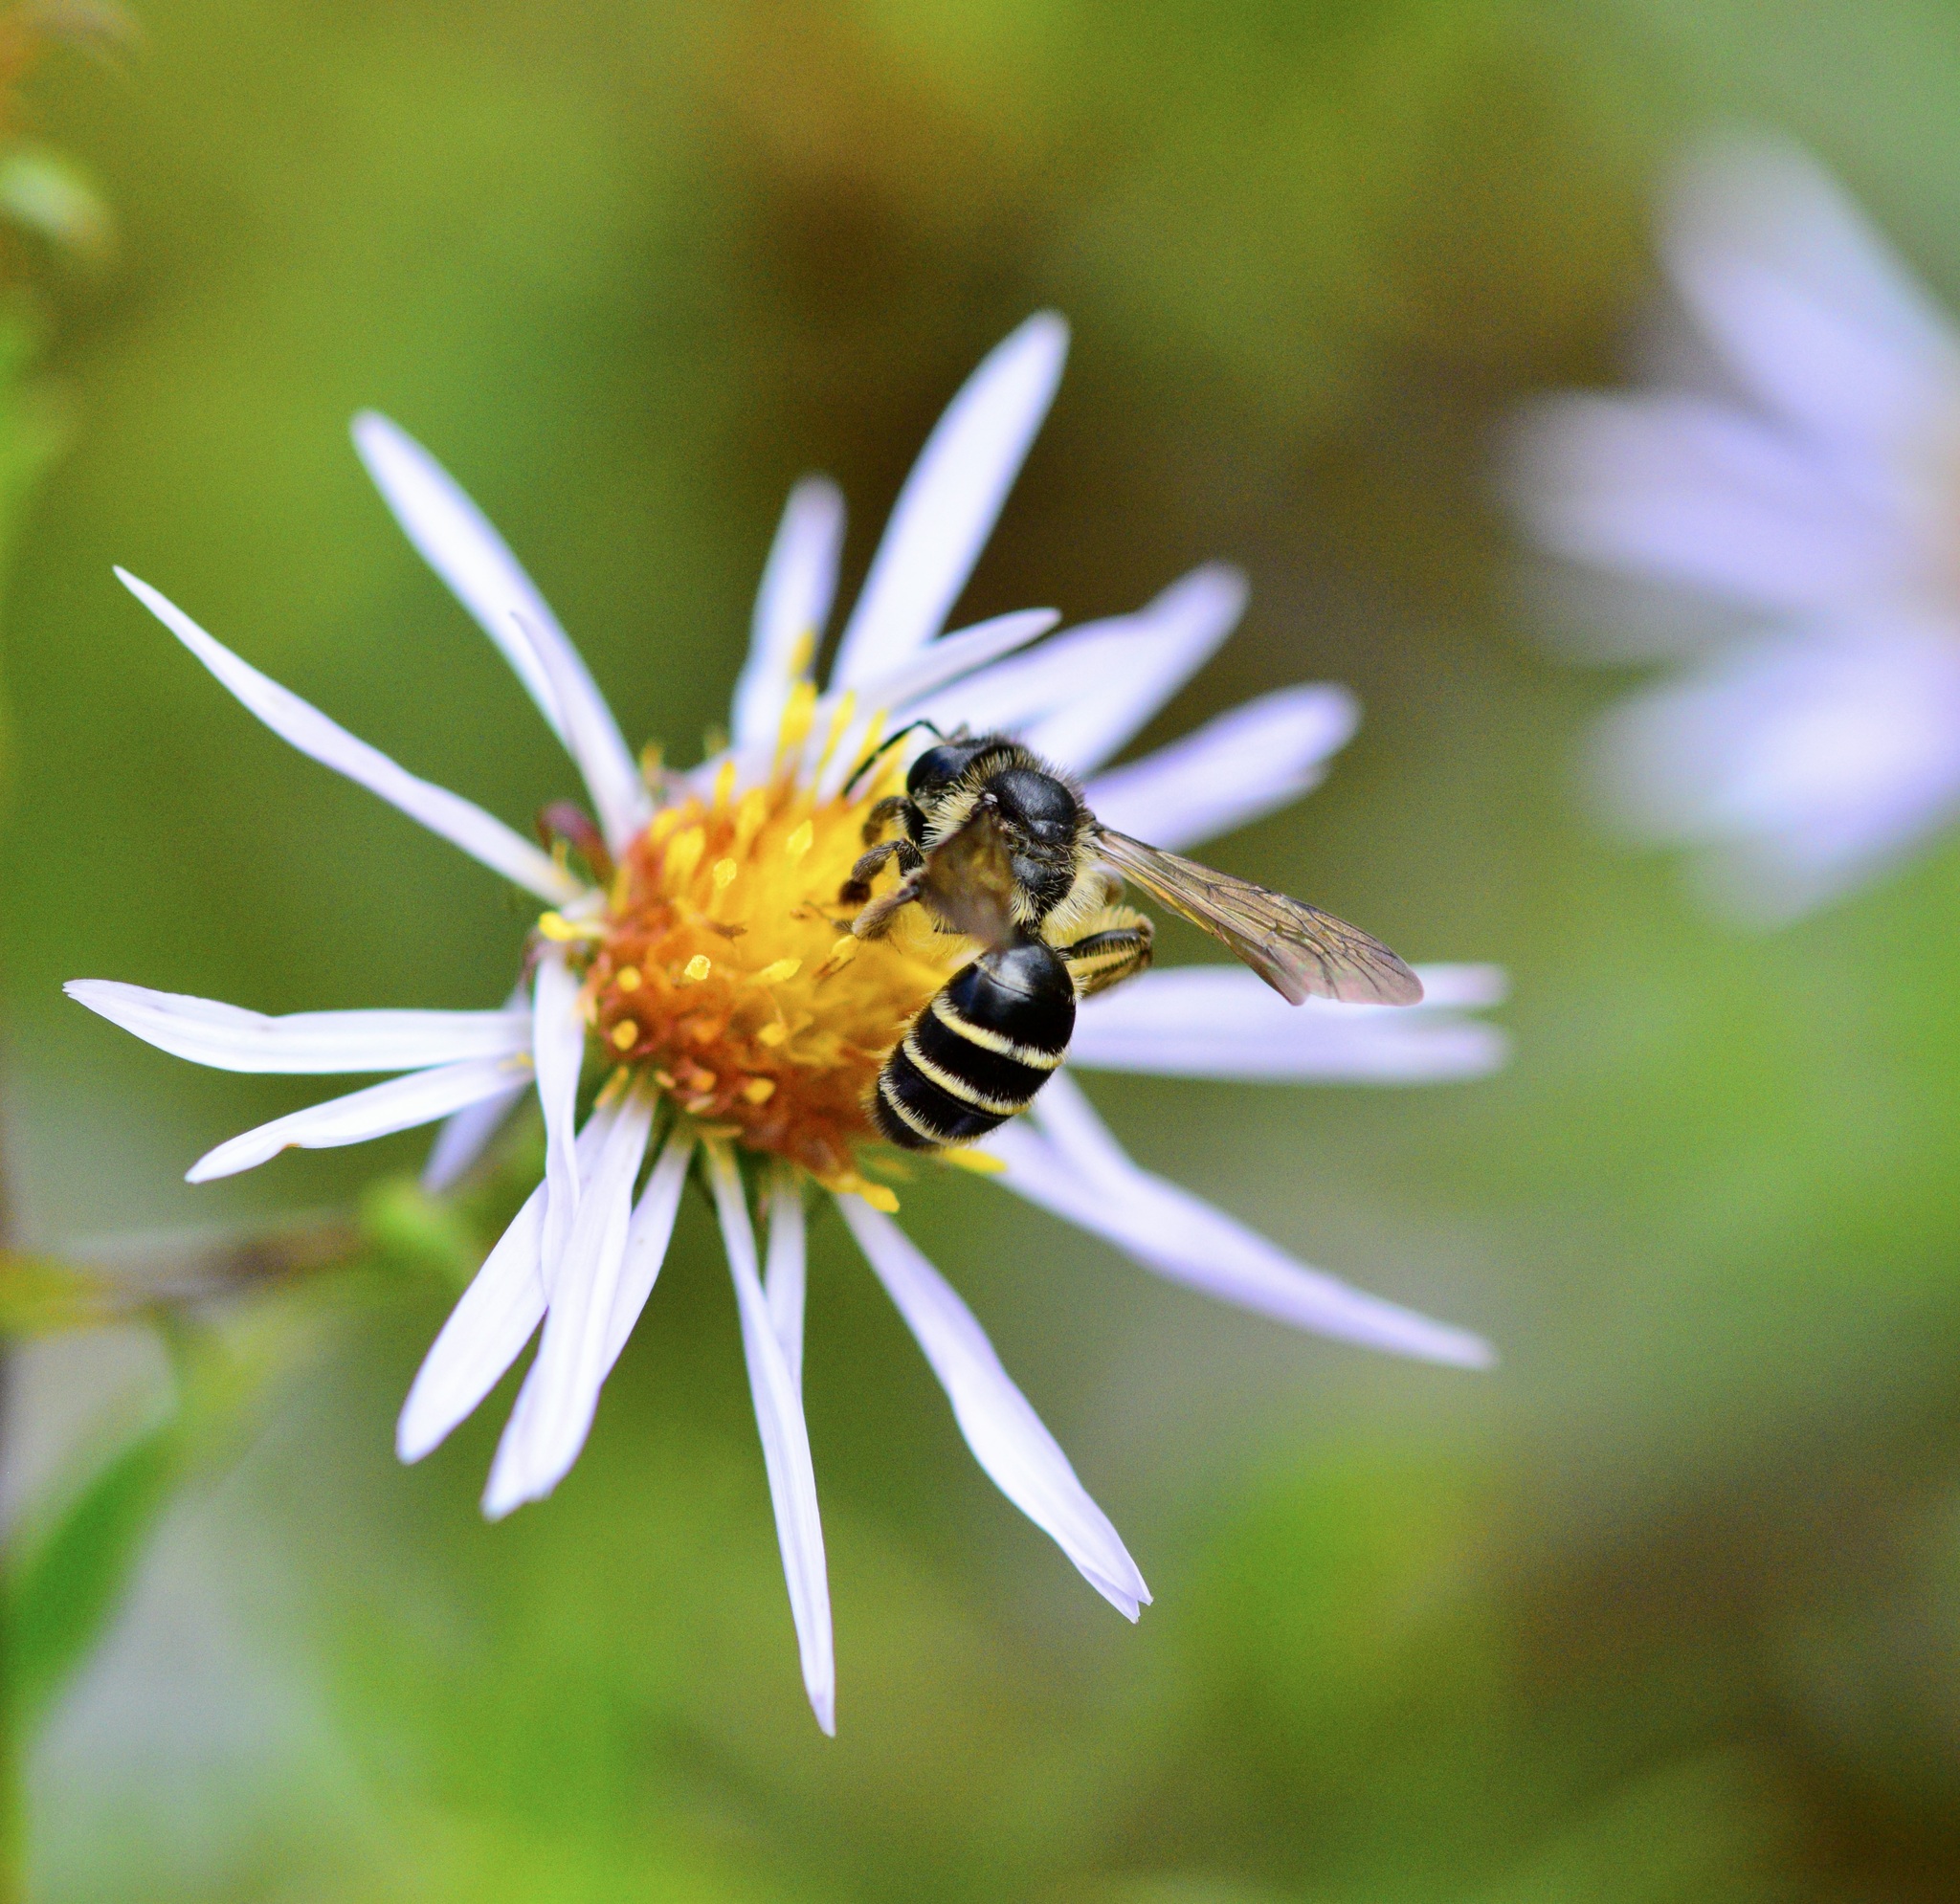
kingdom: Animalia
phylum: Arthropoda
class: Insecta
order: Hymenoptera
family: Andrenidae
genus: Andrena
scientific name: Andrena robervalensis
